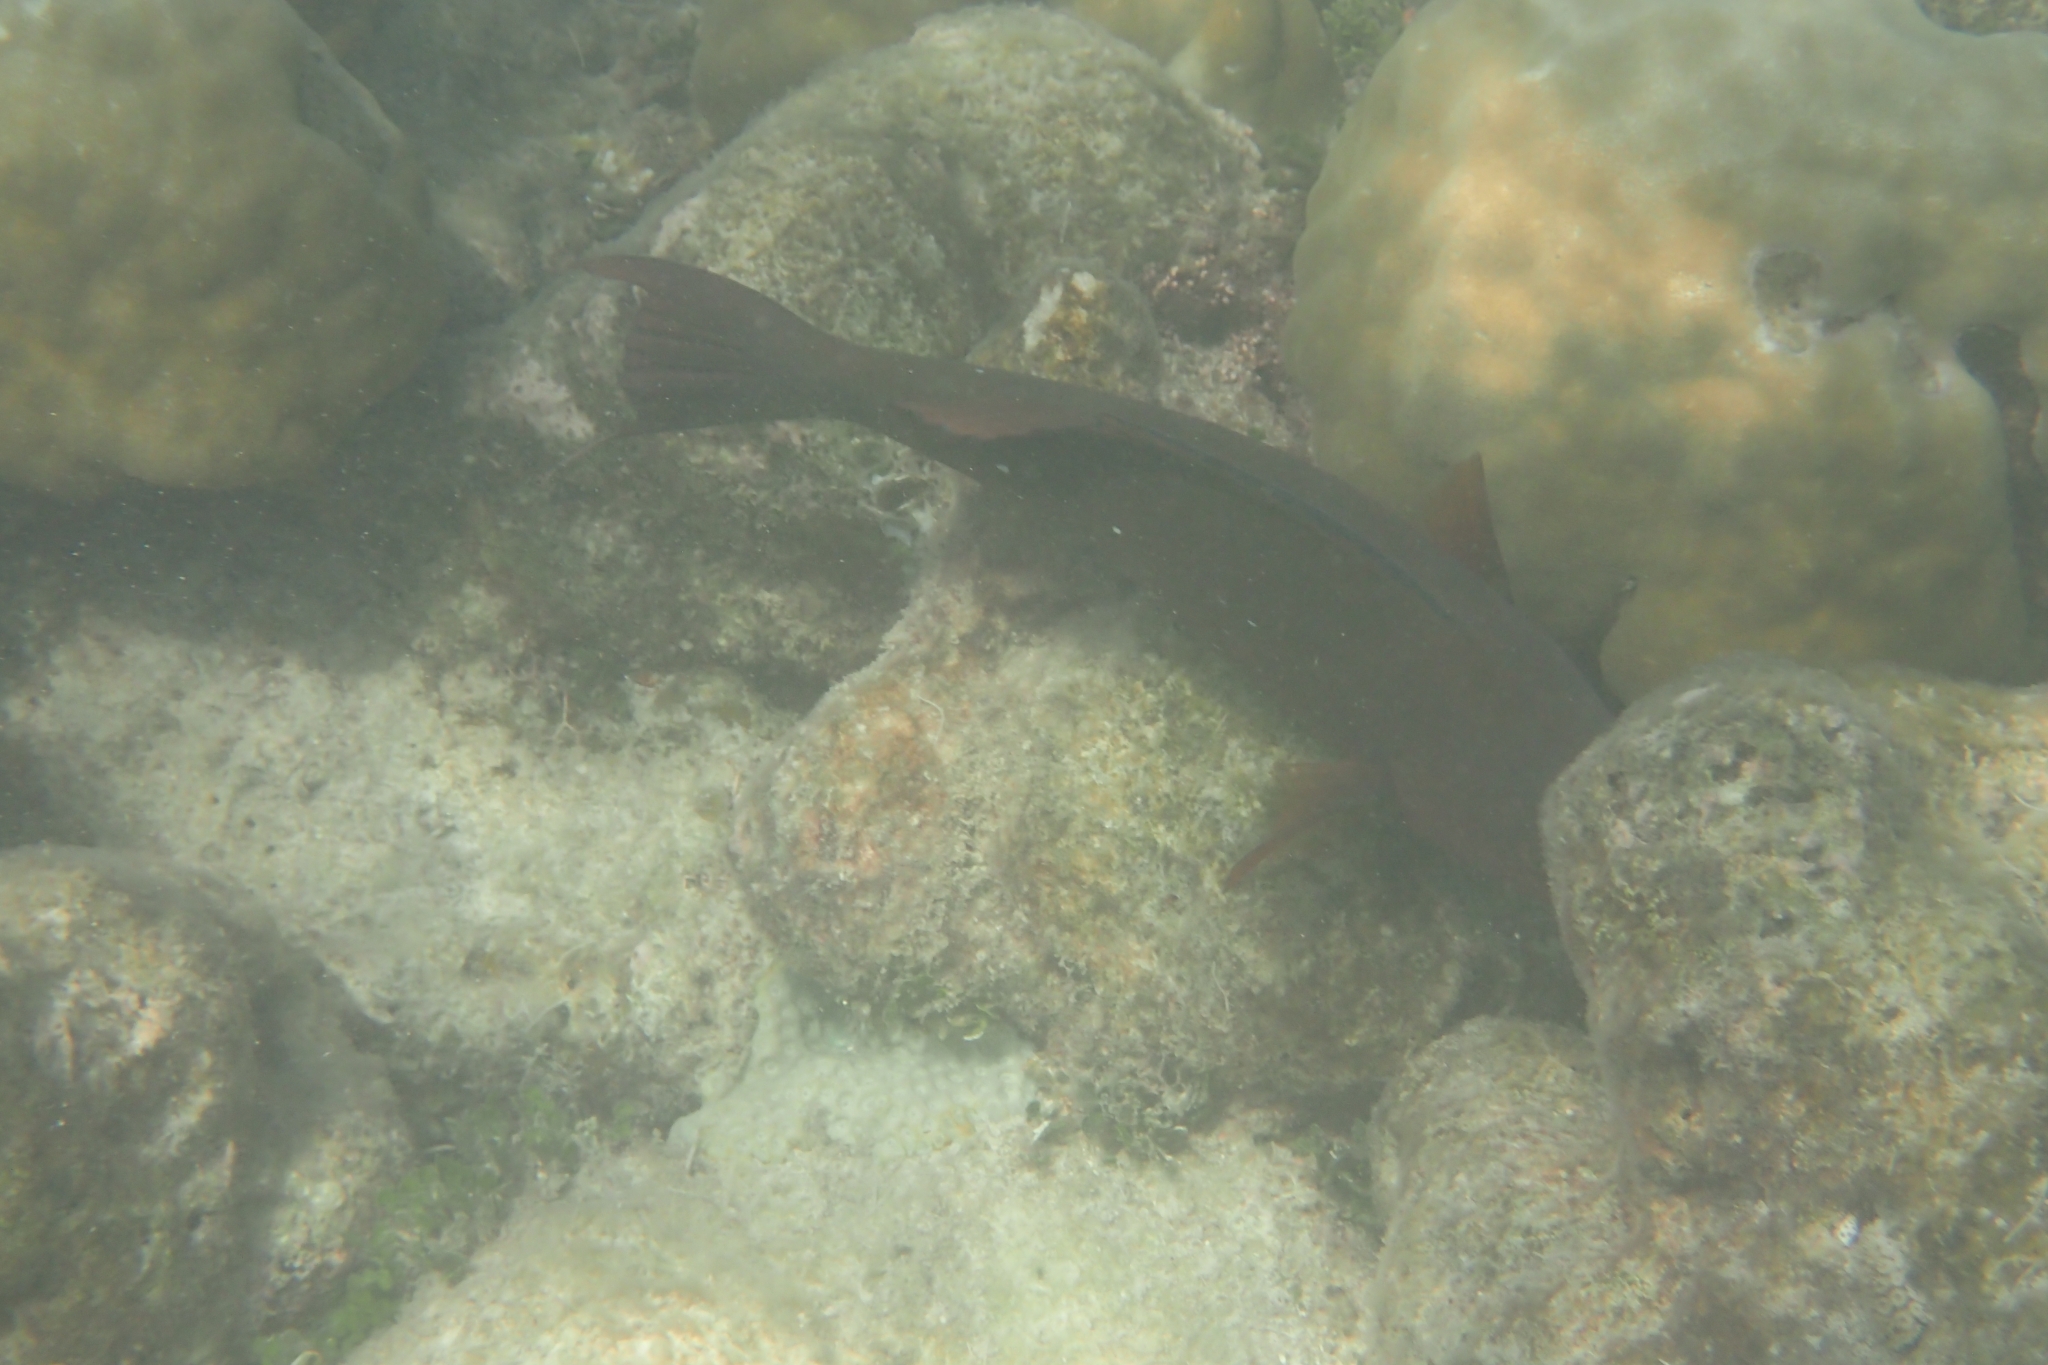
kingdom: Animalia
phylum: Chordata
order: Perciformes
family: Scaridae
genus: Scarus
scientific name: Scarus altipinnis
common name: Minifin parrotfish
